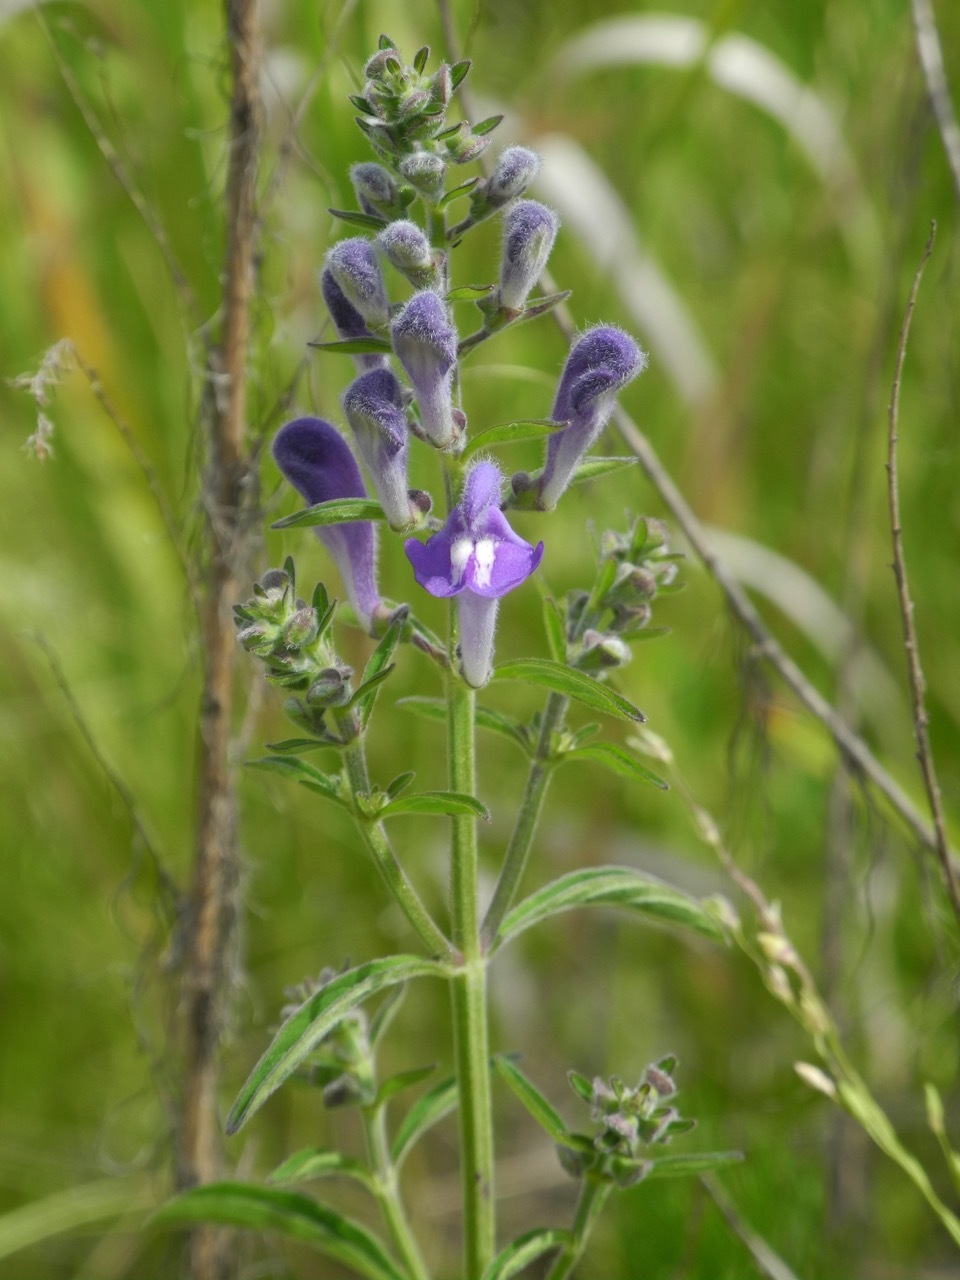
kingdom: Plantae
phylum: Tracheophyta
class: Magnoliopsida
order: Lamiales
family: Lamiaceae
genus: Scutellaria
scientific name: Scutellaria integrifolia
